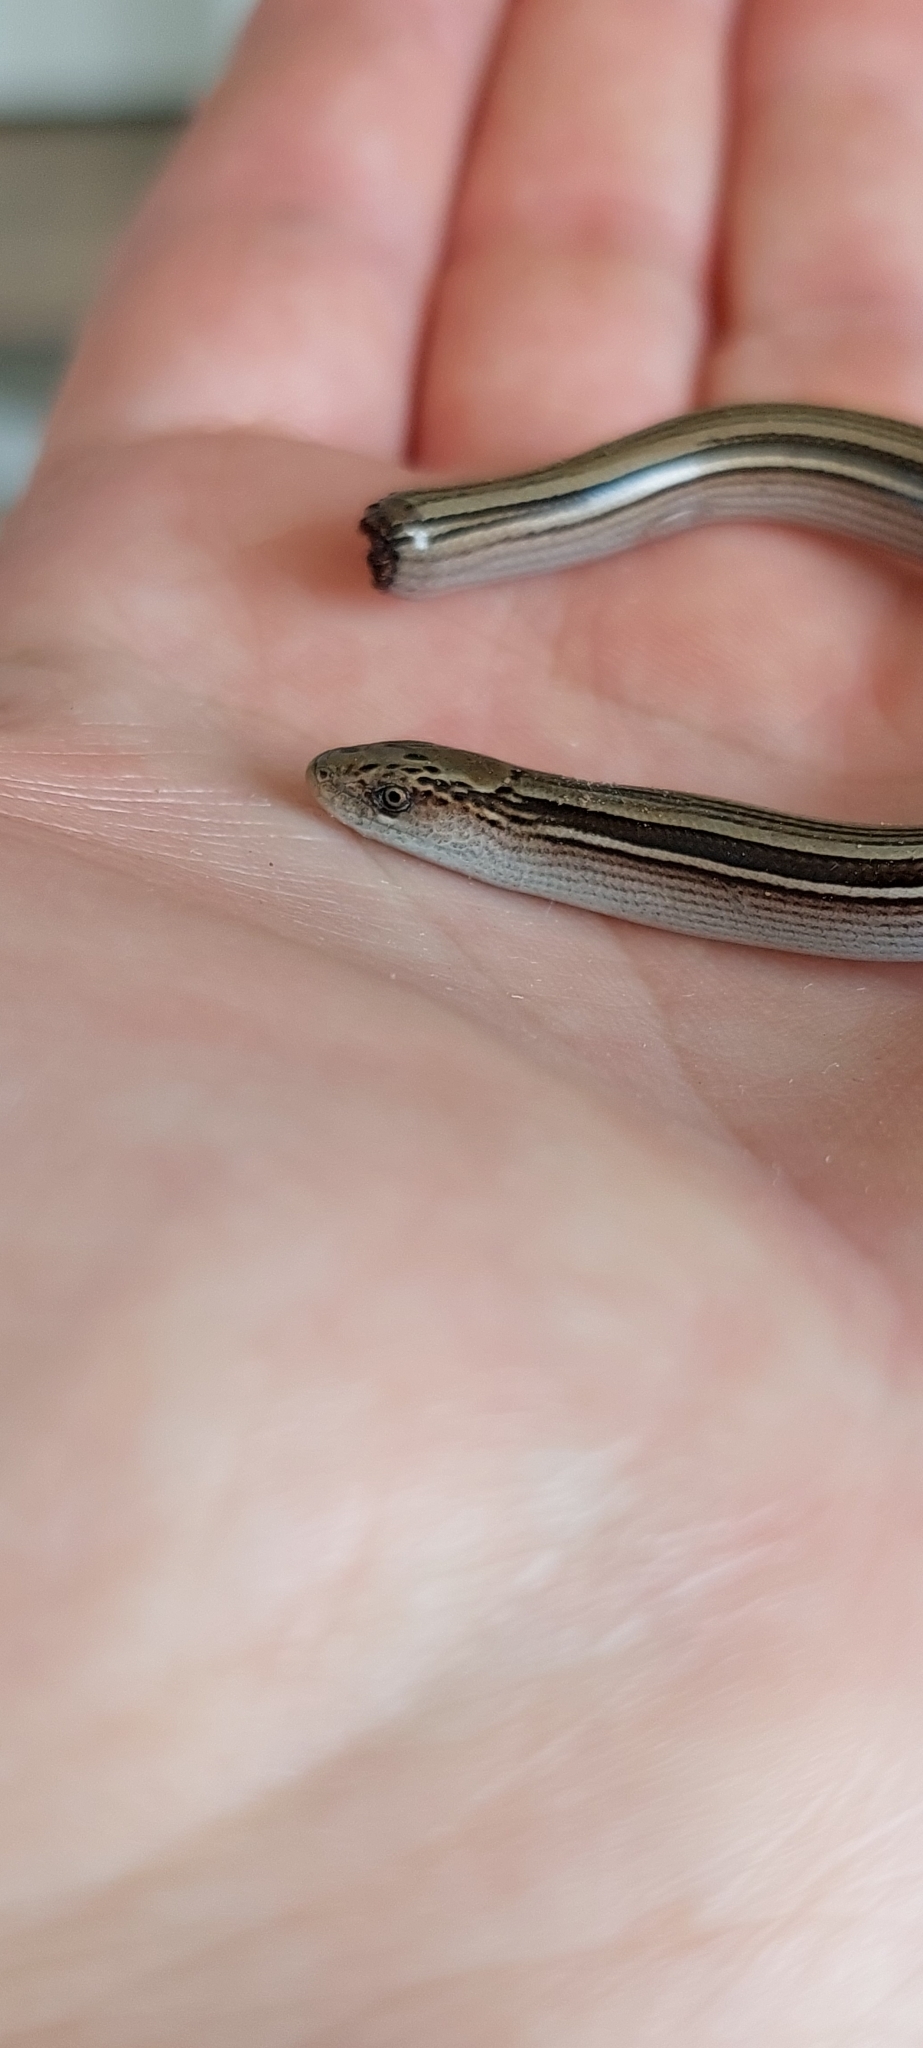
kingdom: Animalia
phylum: Chordata
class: Squamata
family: Diploglossidae
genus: Ophiodes
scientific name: Ophiodes vertebralis
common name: Jointed worm lizard
